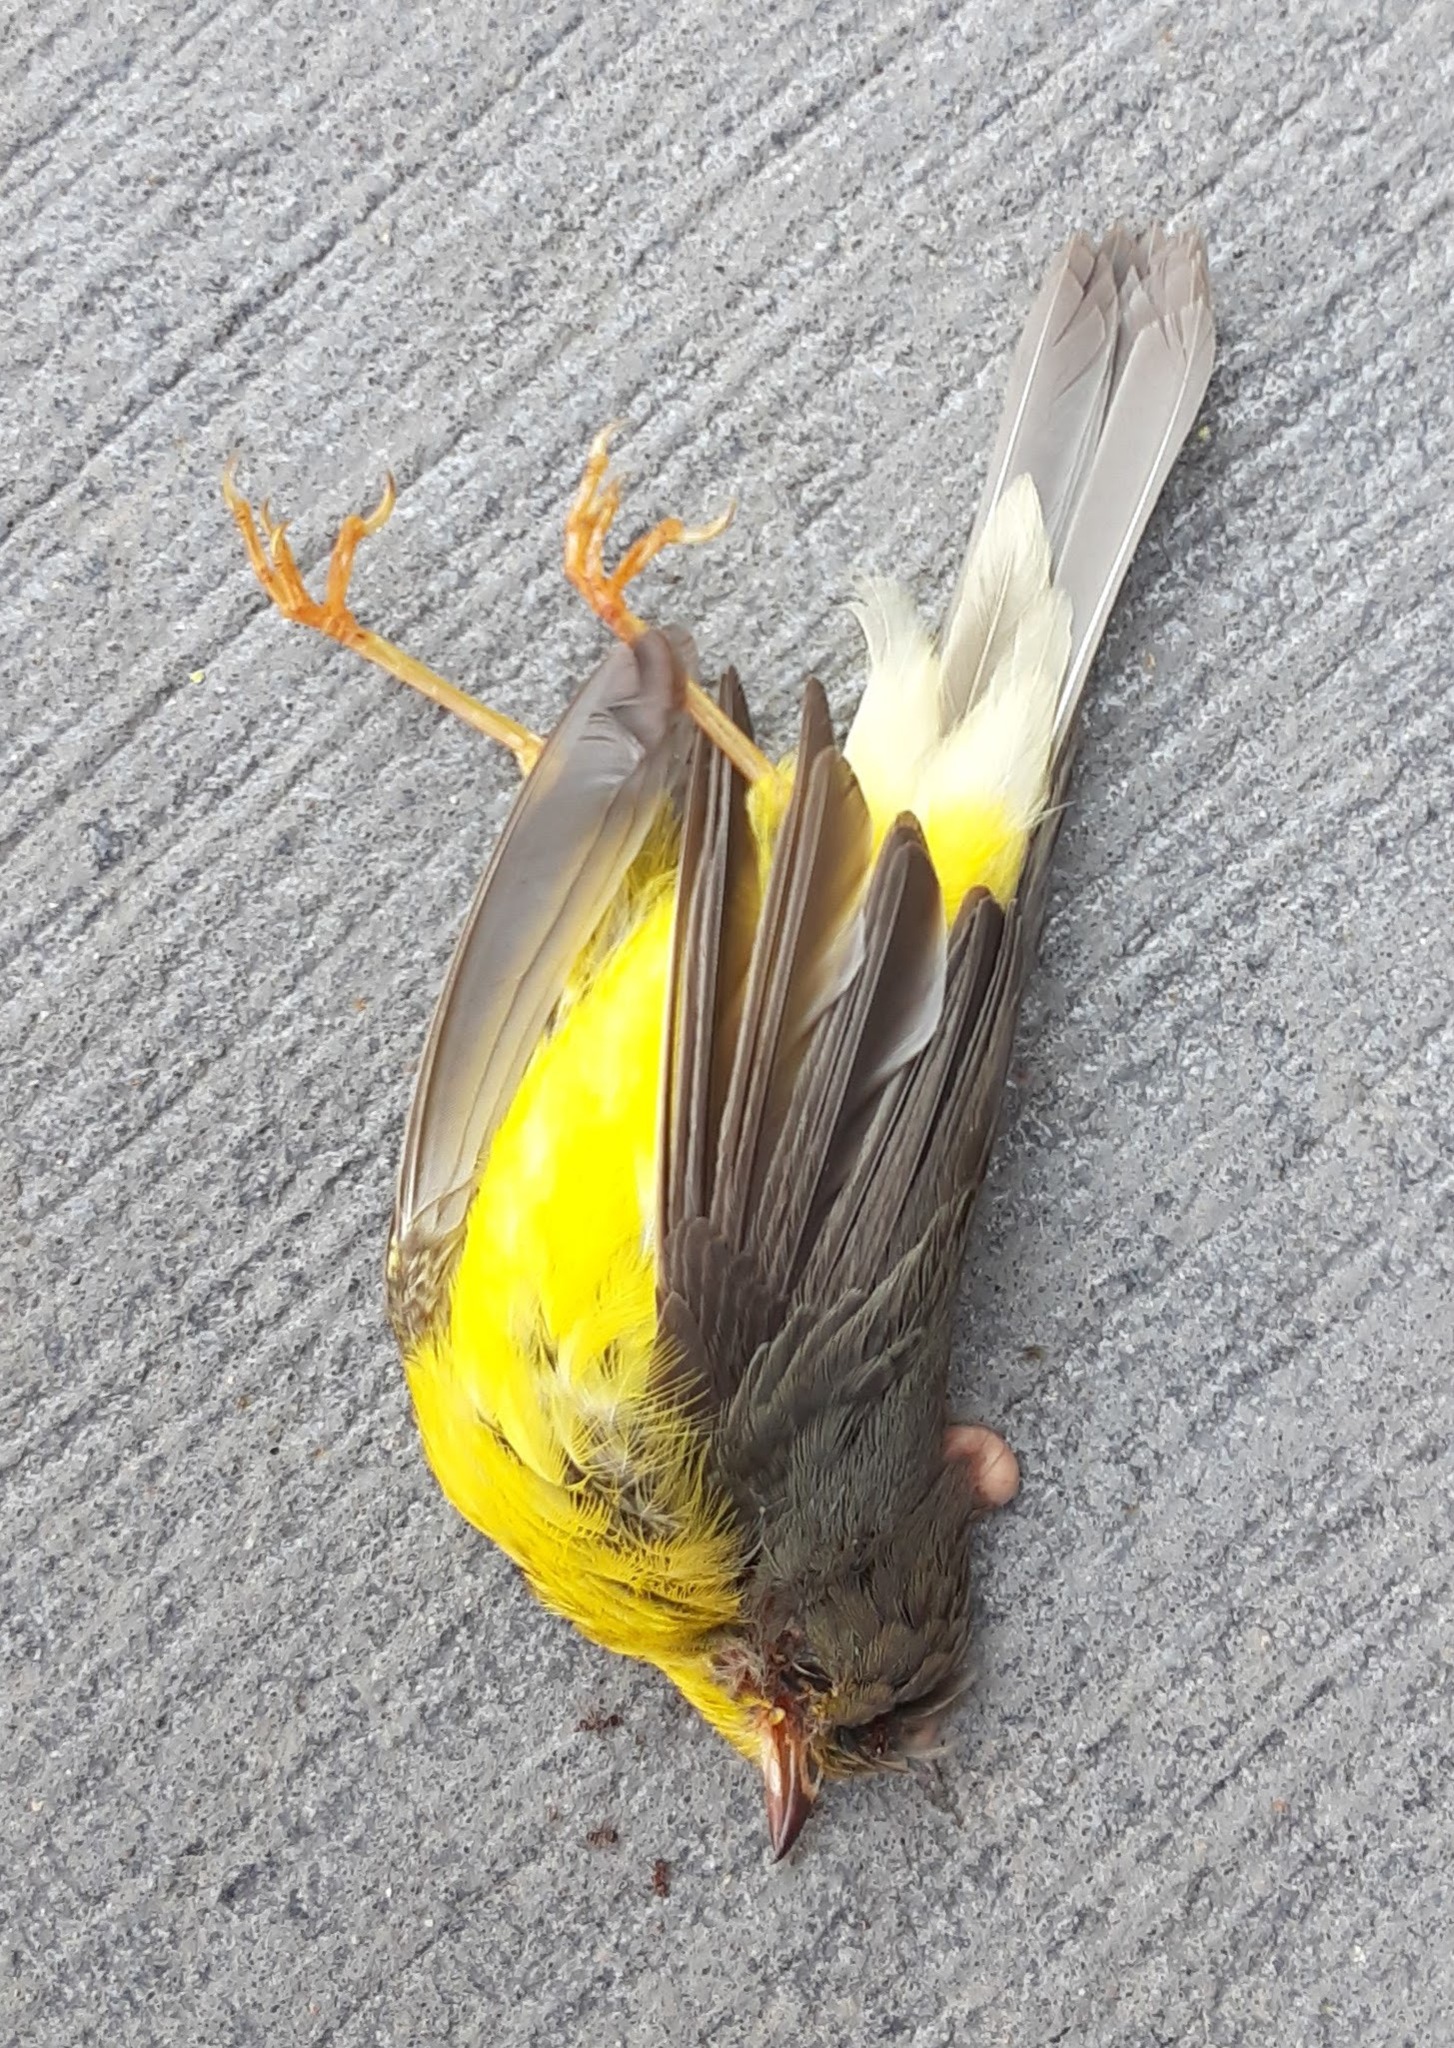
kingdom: Animalia
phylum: Chordata
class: Aves
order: Passeriformes
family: Parulidae
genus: Cardellina
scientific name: Cardellina canadensis
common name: Canada warbler
